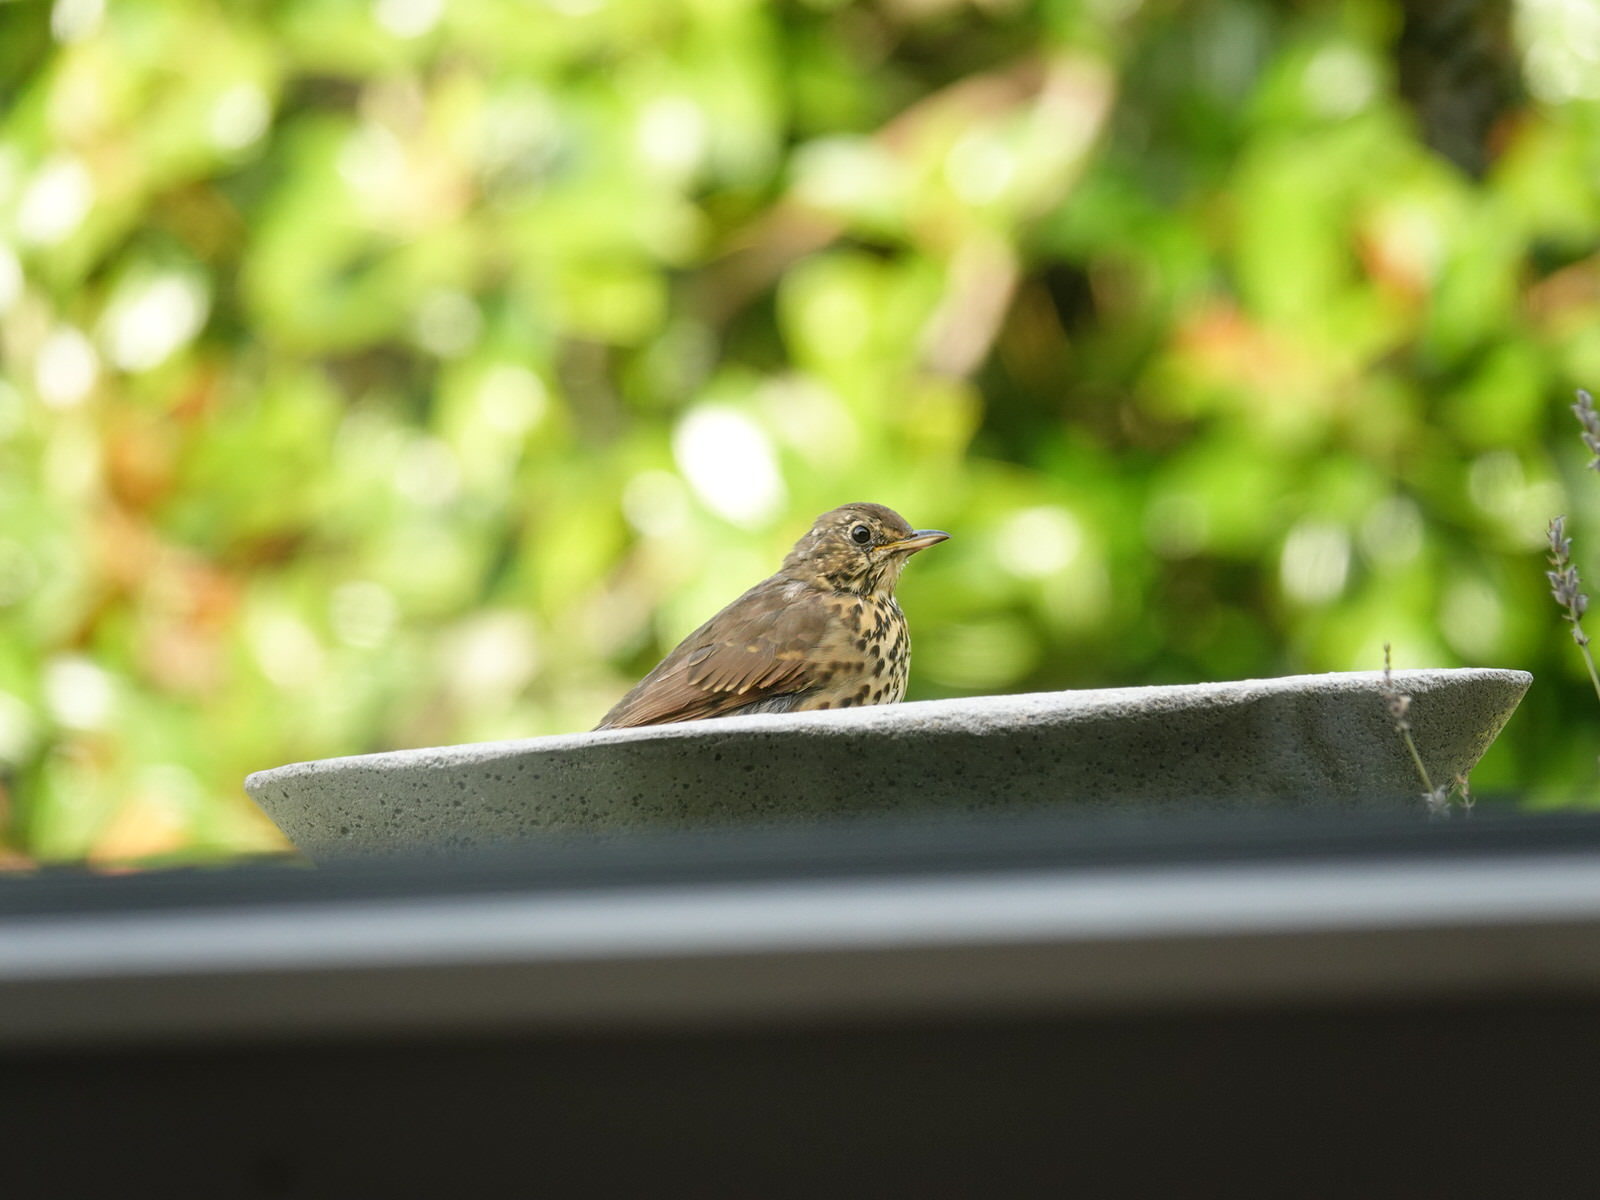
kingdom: Animalia
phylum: Chordata
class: Aves
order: Passeriformes
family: Turdidae
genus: Turdus
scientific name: Turdus philomelos
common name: Song thrush
